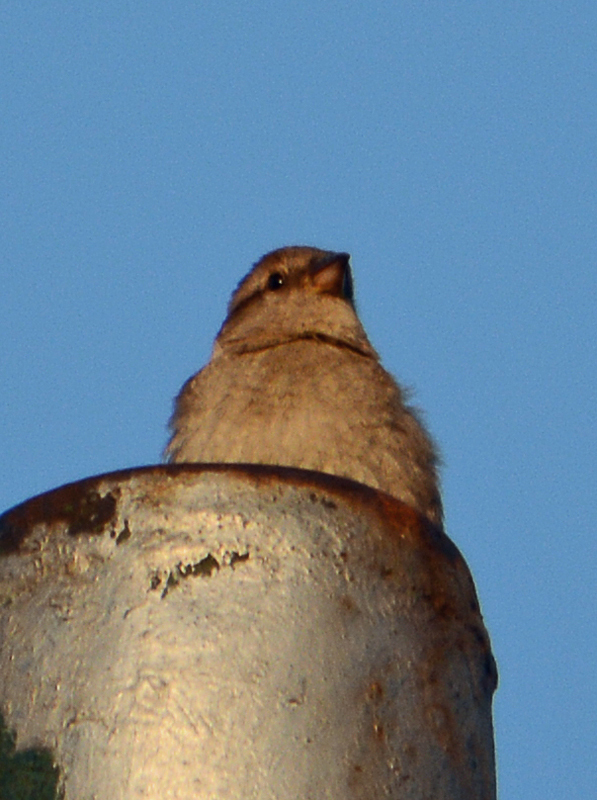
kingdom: Animalia
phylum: Chordata
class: Aves
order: Passeriformes
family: Passeridae
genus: Passer
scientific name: Passer domesticus
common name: House sparrow
